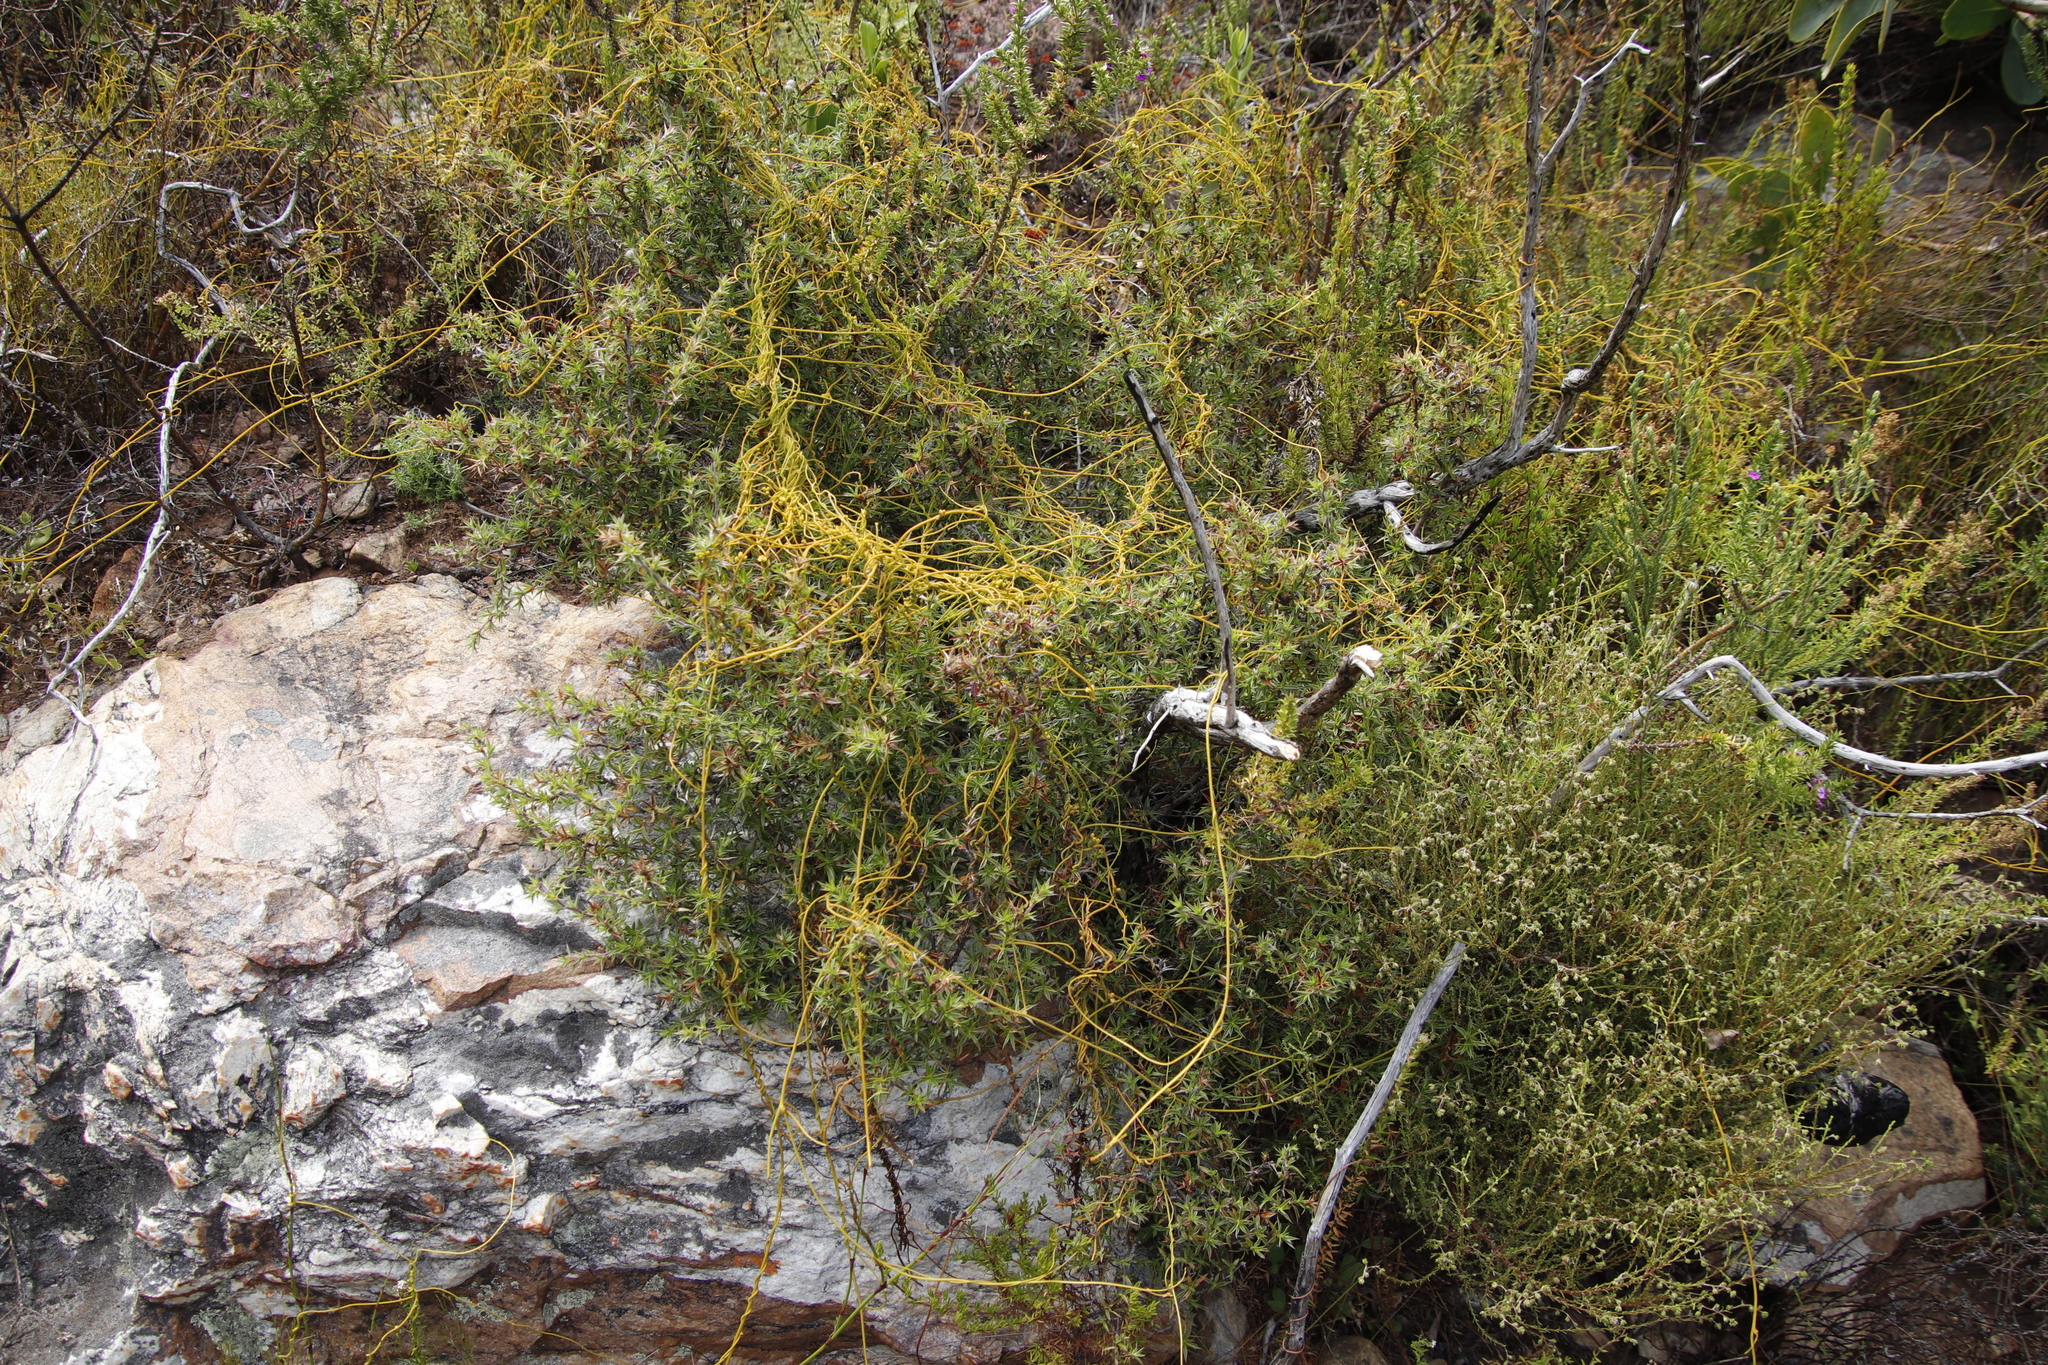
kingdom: Plantae
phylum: Tracheophyta
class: Magnoliopsida
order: Laurales
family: Lauraceae
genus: Cassytha
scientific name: Cassytha ciliolata
